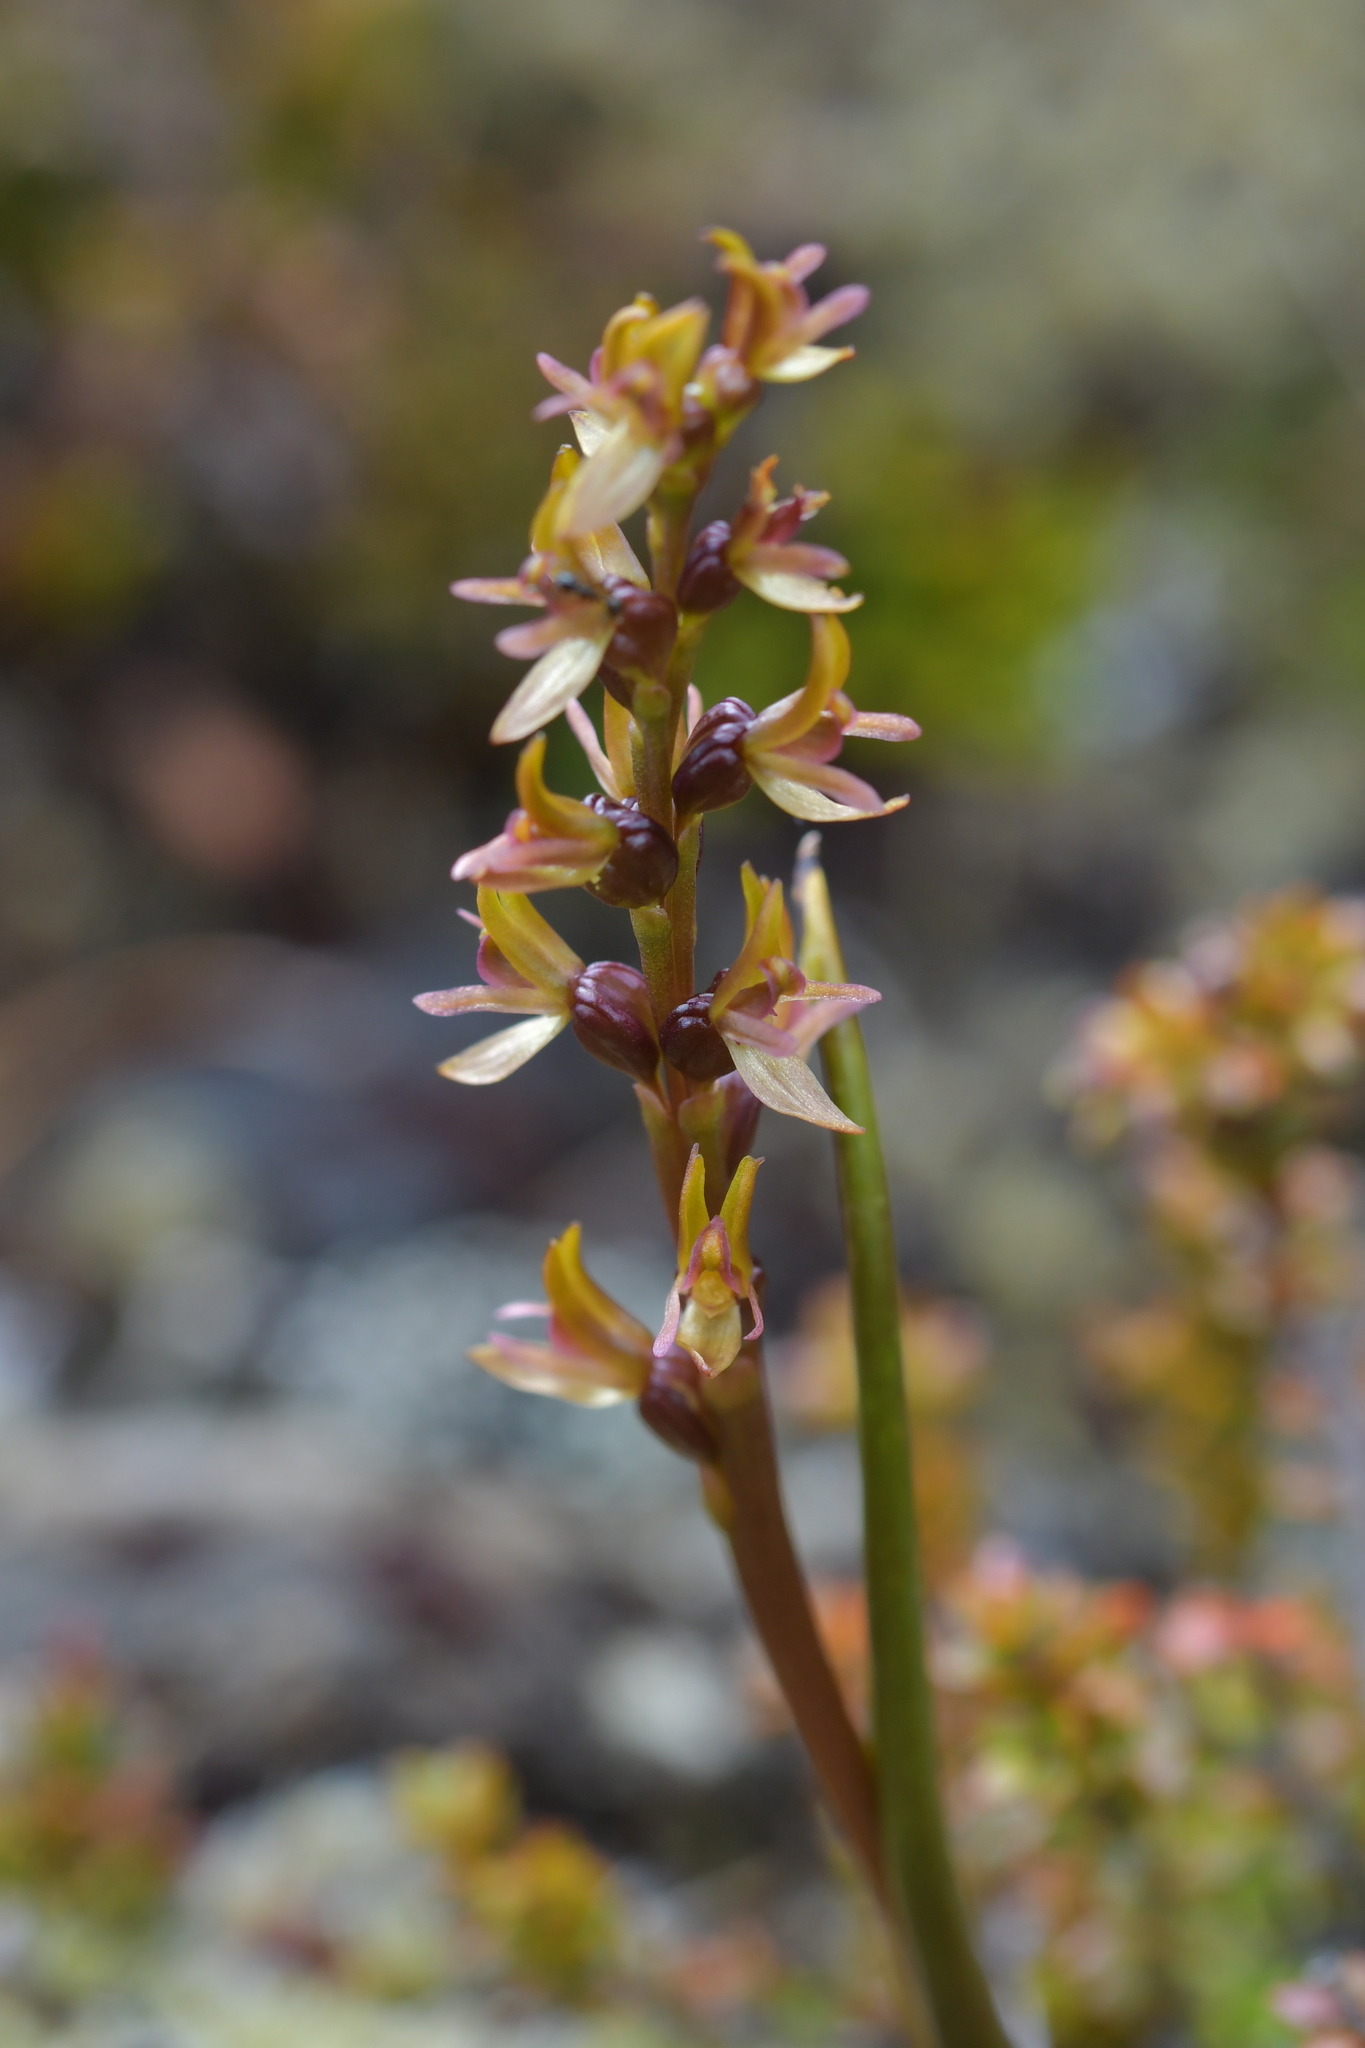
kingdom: Plantae
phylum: Tracheophyta
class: Liliopsida
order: Asparagales
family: Orchidaceae
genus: Prasophyllum
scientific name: Prasophyllum colensoi
